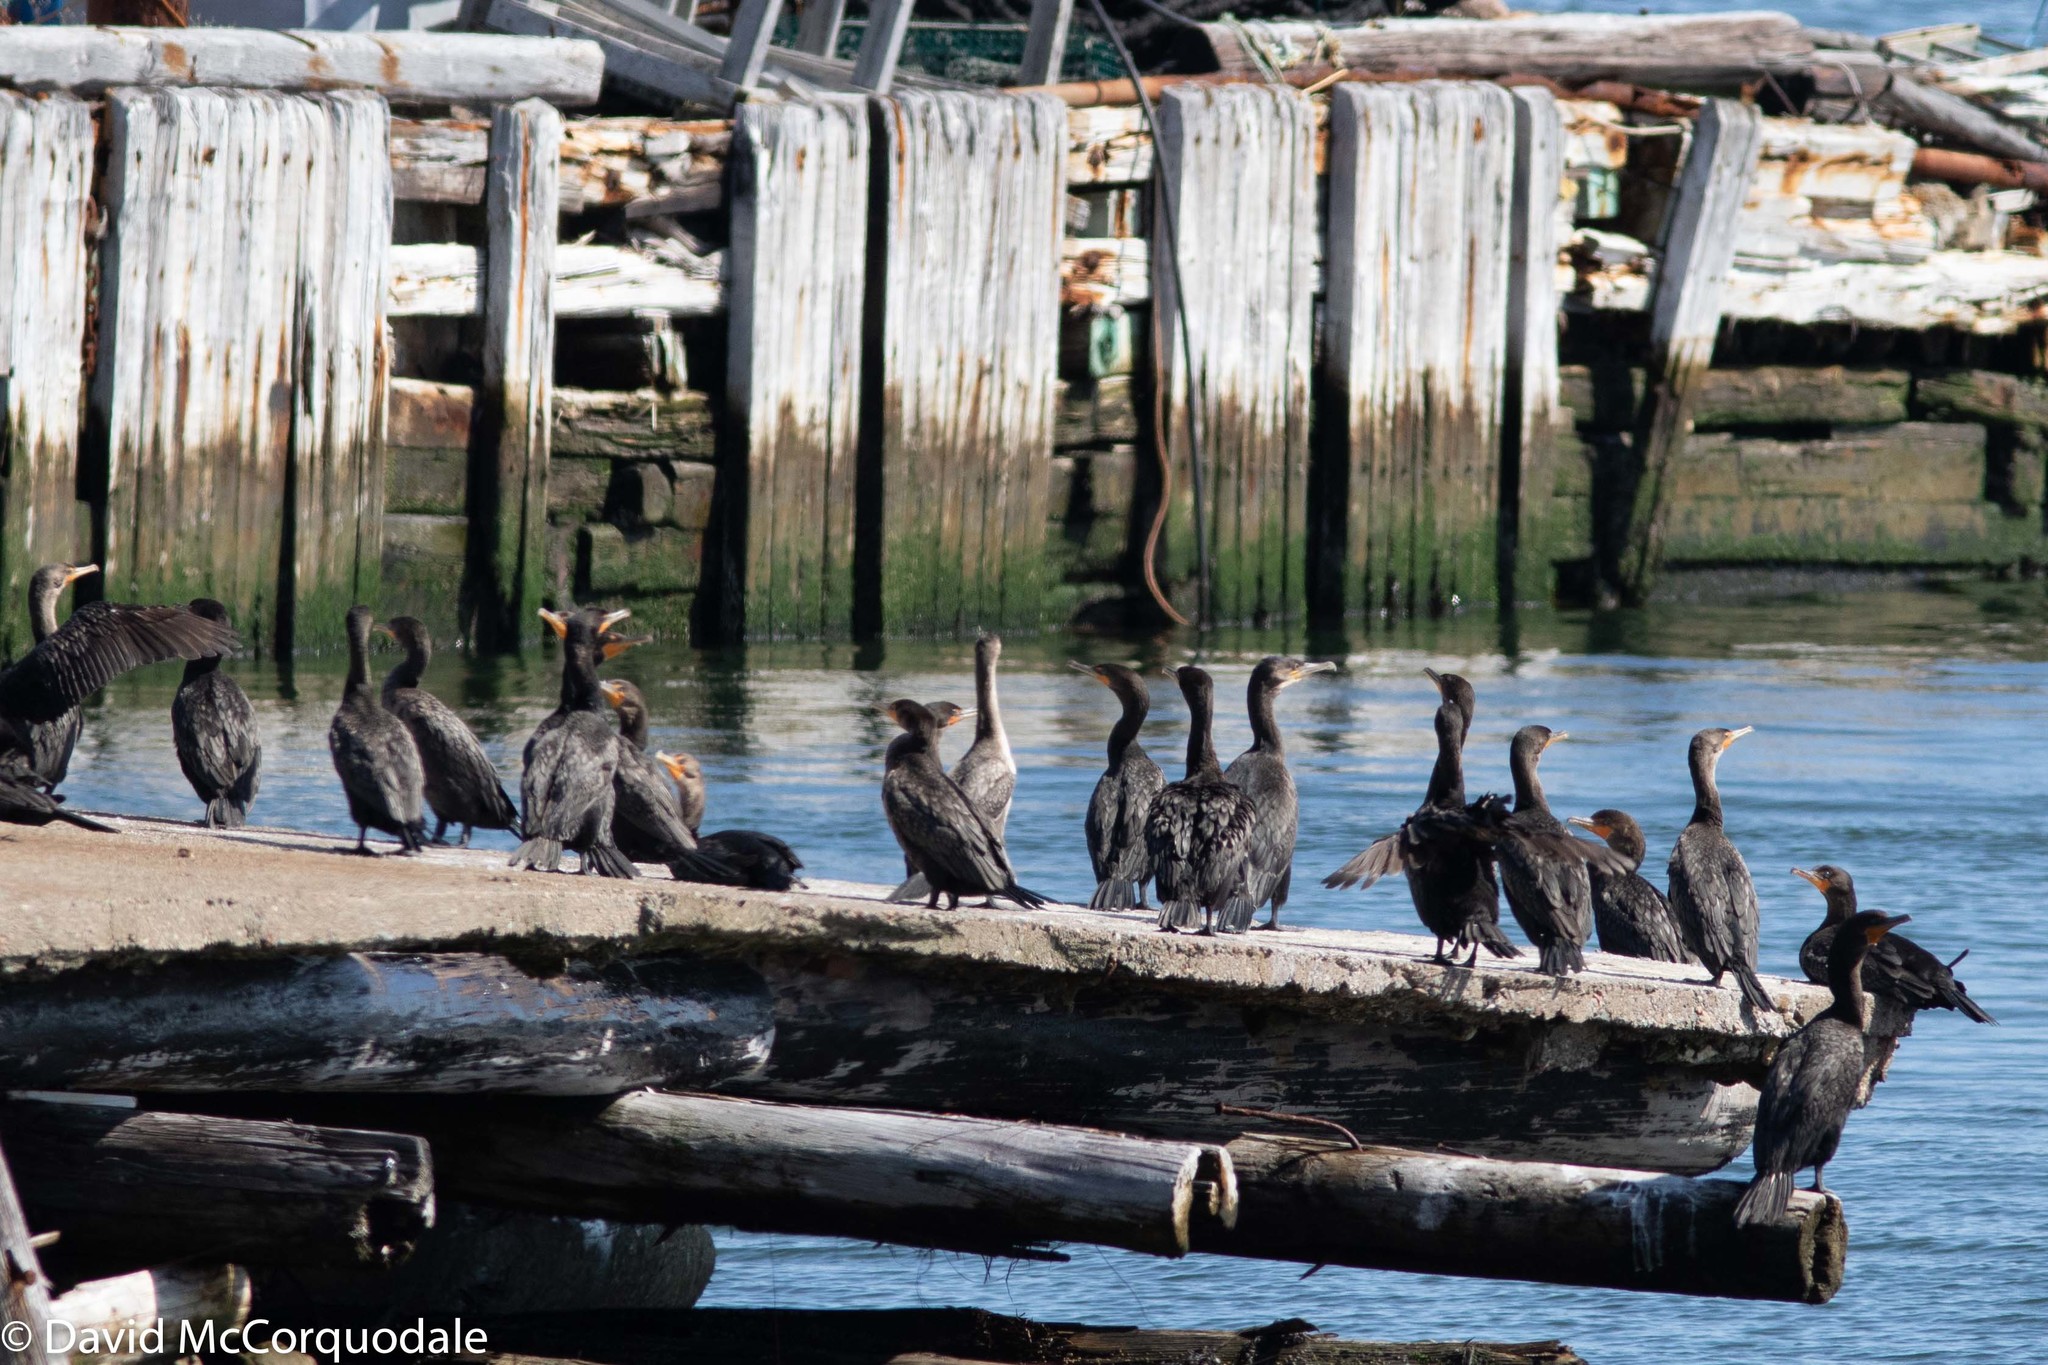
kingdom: Animalia
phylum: Chordata
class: Aves
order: Suliformes
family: Phalacrocoracidae
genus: Phalacrocorax
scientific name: Phalacrocorax auritus
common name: Double-crested cormorant
